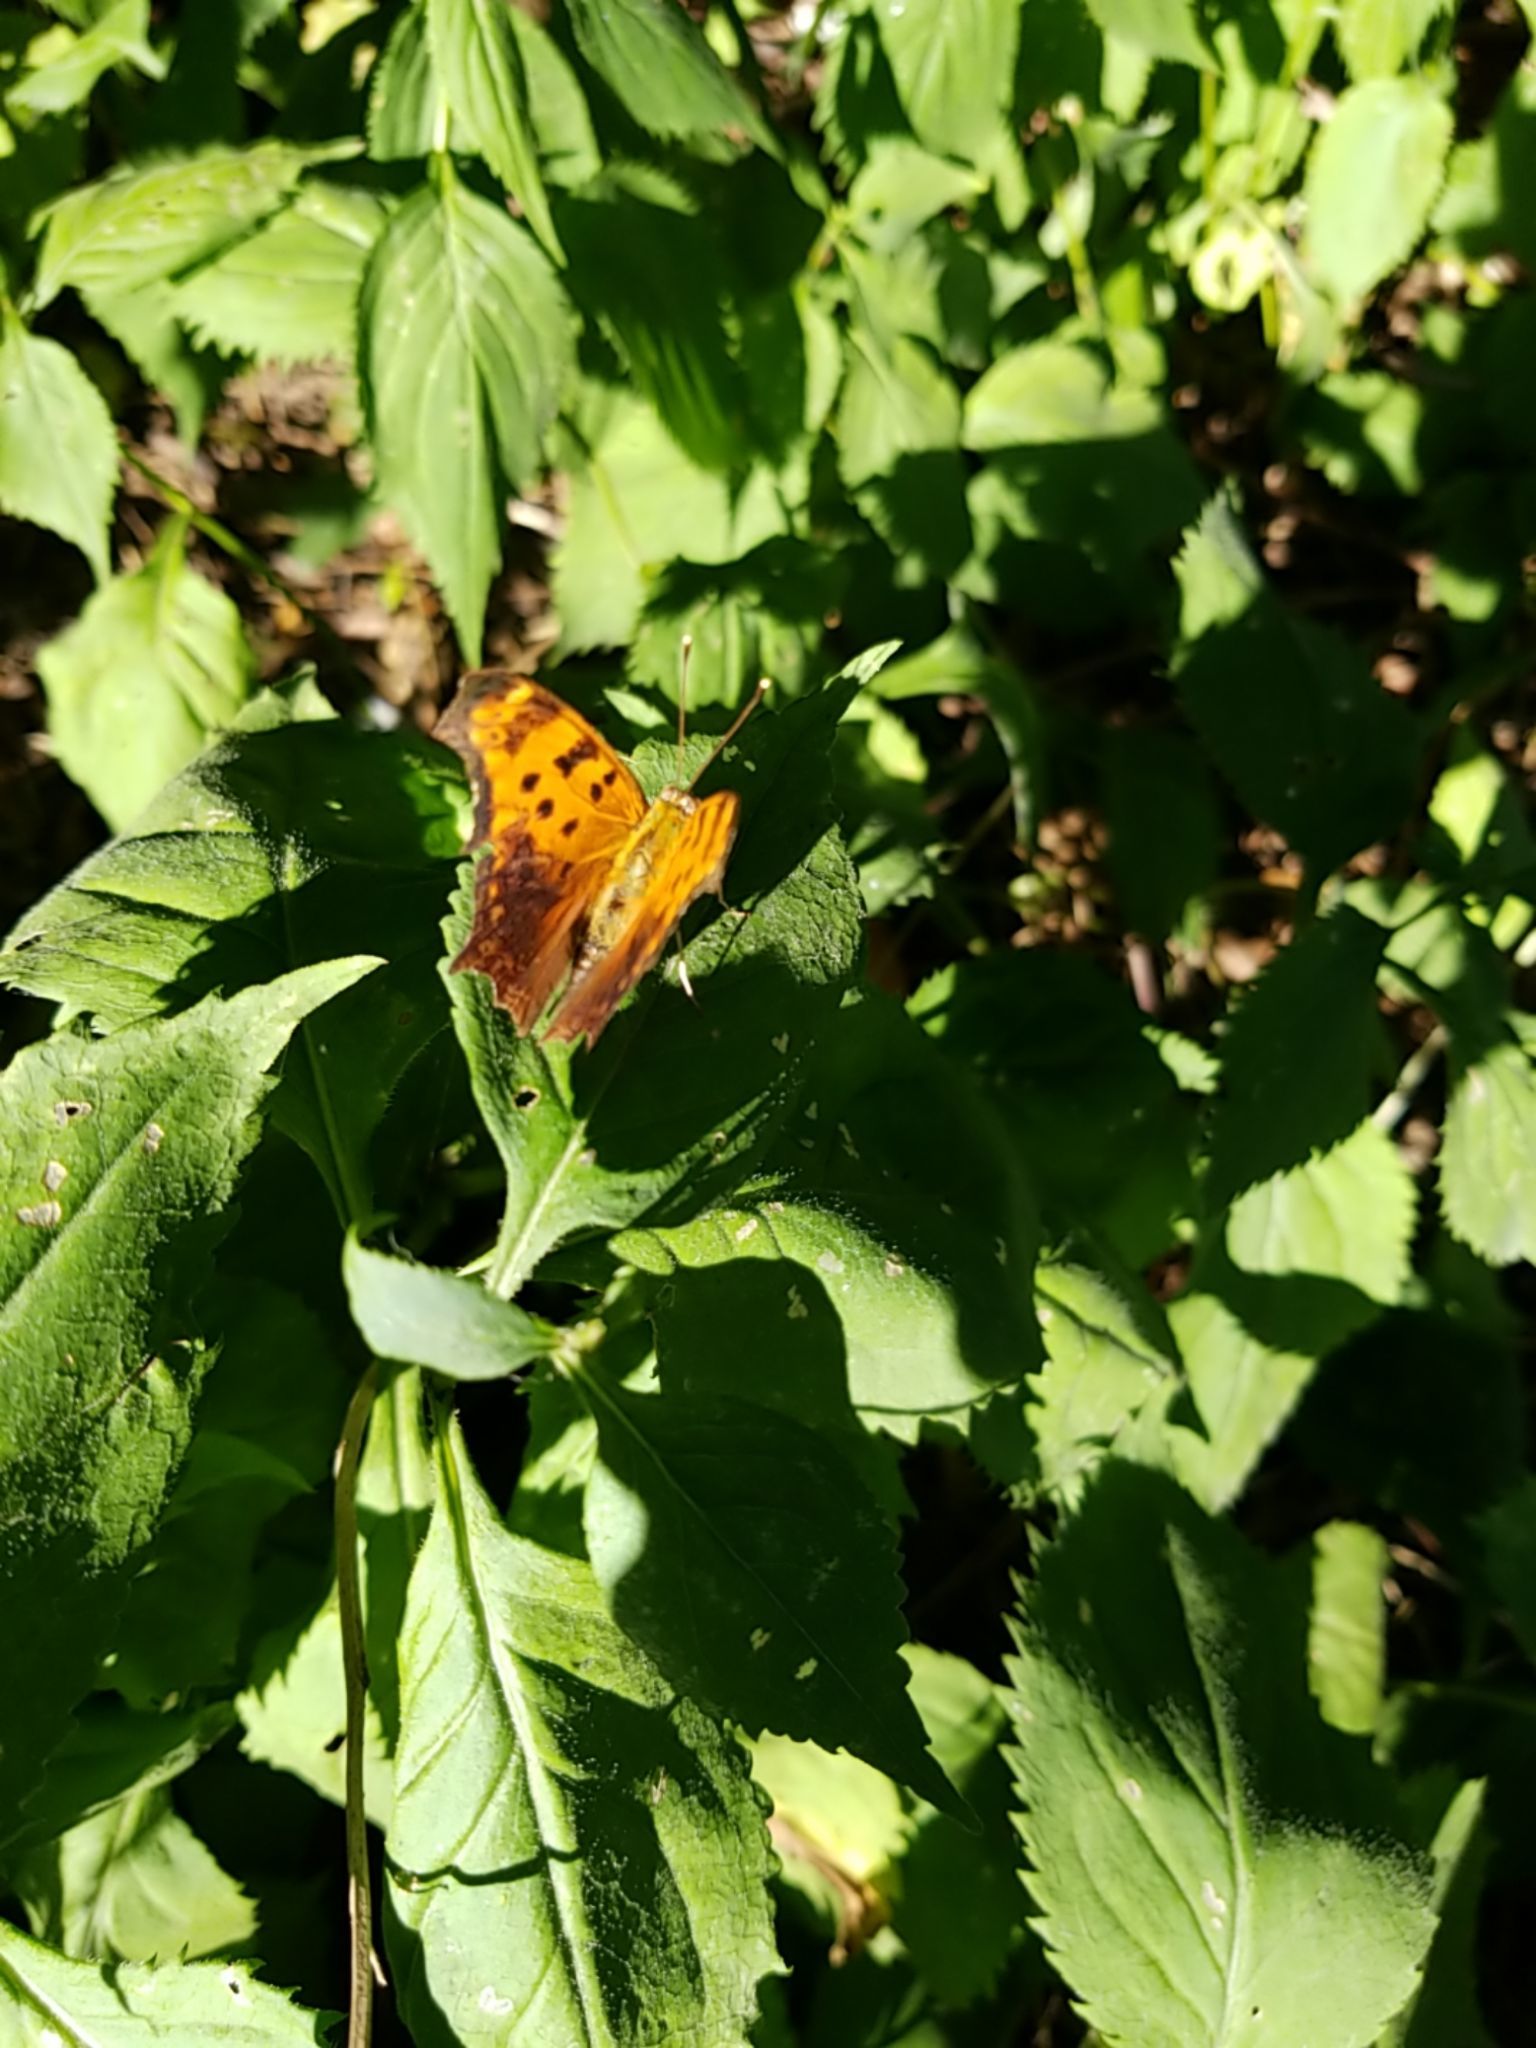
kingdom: Animalia
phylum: Arthropoda
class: Insecta
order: Lepidoptera
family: Nymphalidae
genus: Polygonia
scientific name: Polygonia comma
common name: Eastern comma
